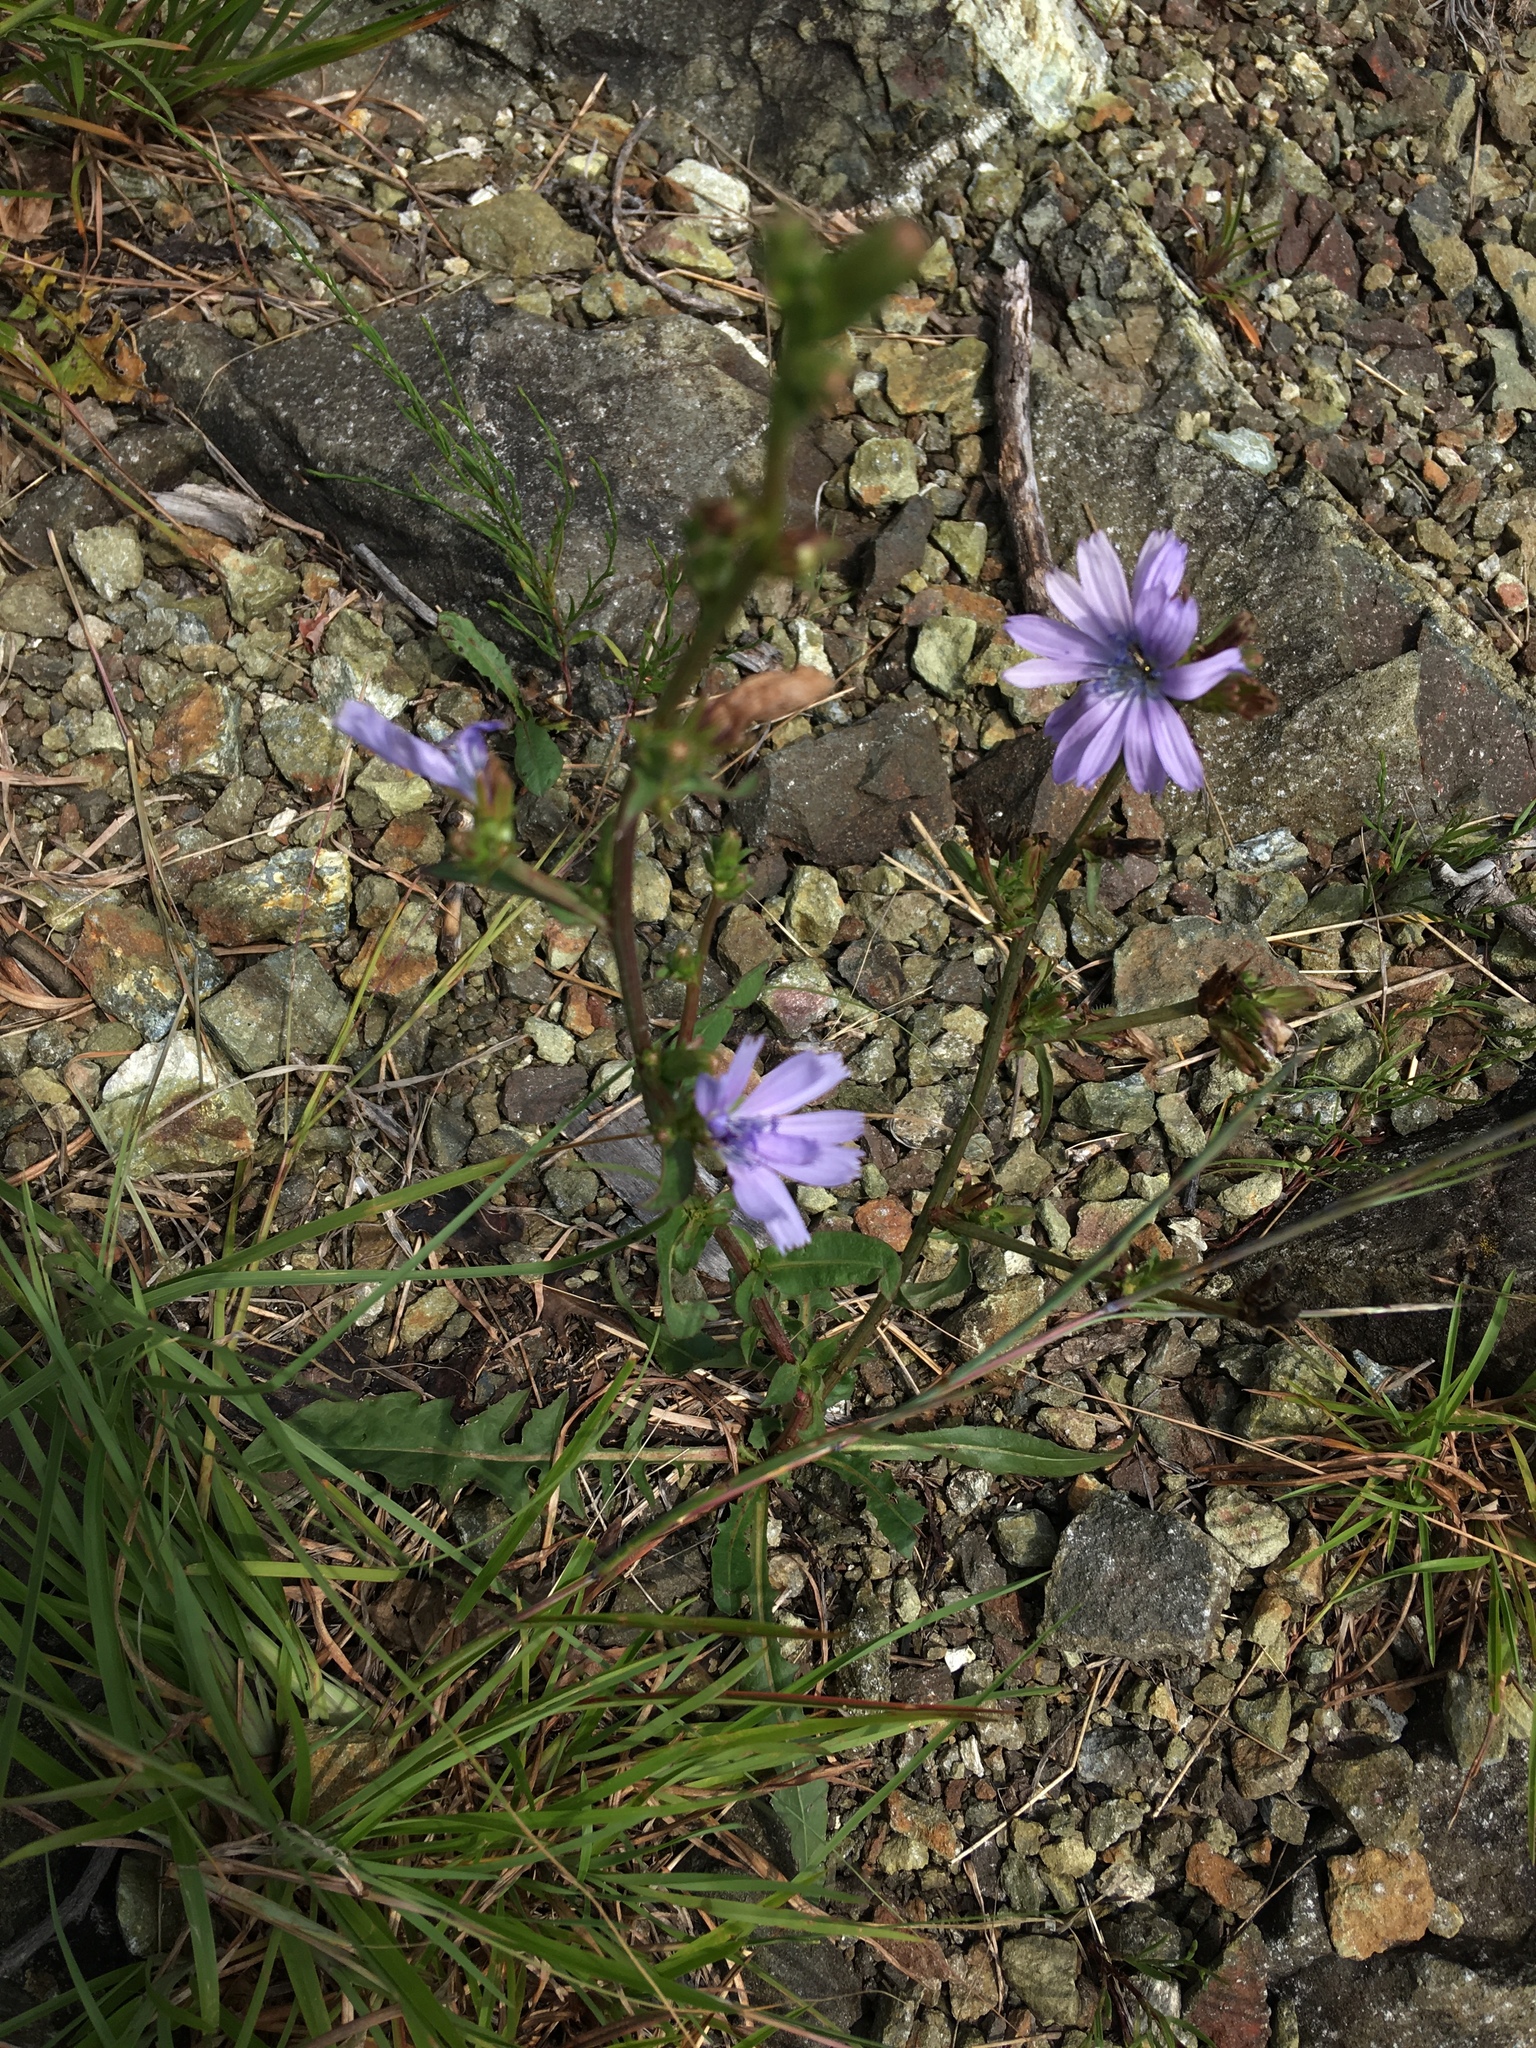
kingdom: Plantae
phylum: Tracheophyta
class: Magnoliopsida
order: Asterales
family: Asteraceae
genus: Cichorium
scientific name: Cichorium intybus
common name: Chicory
